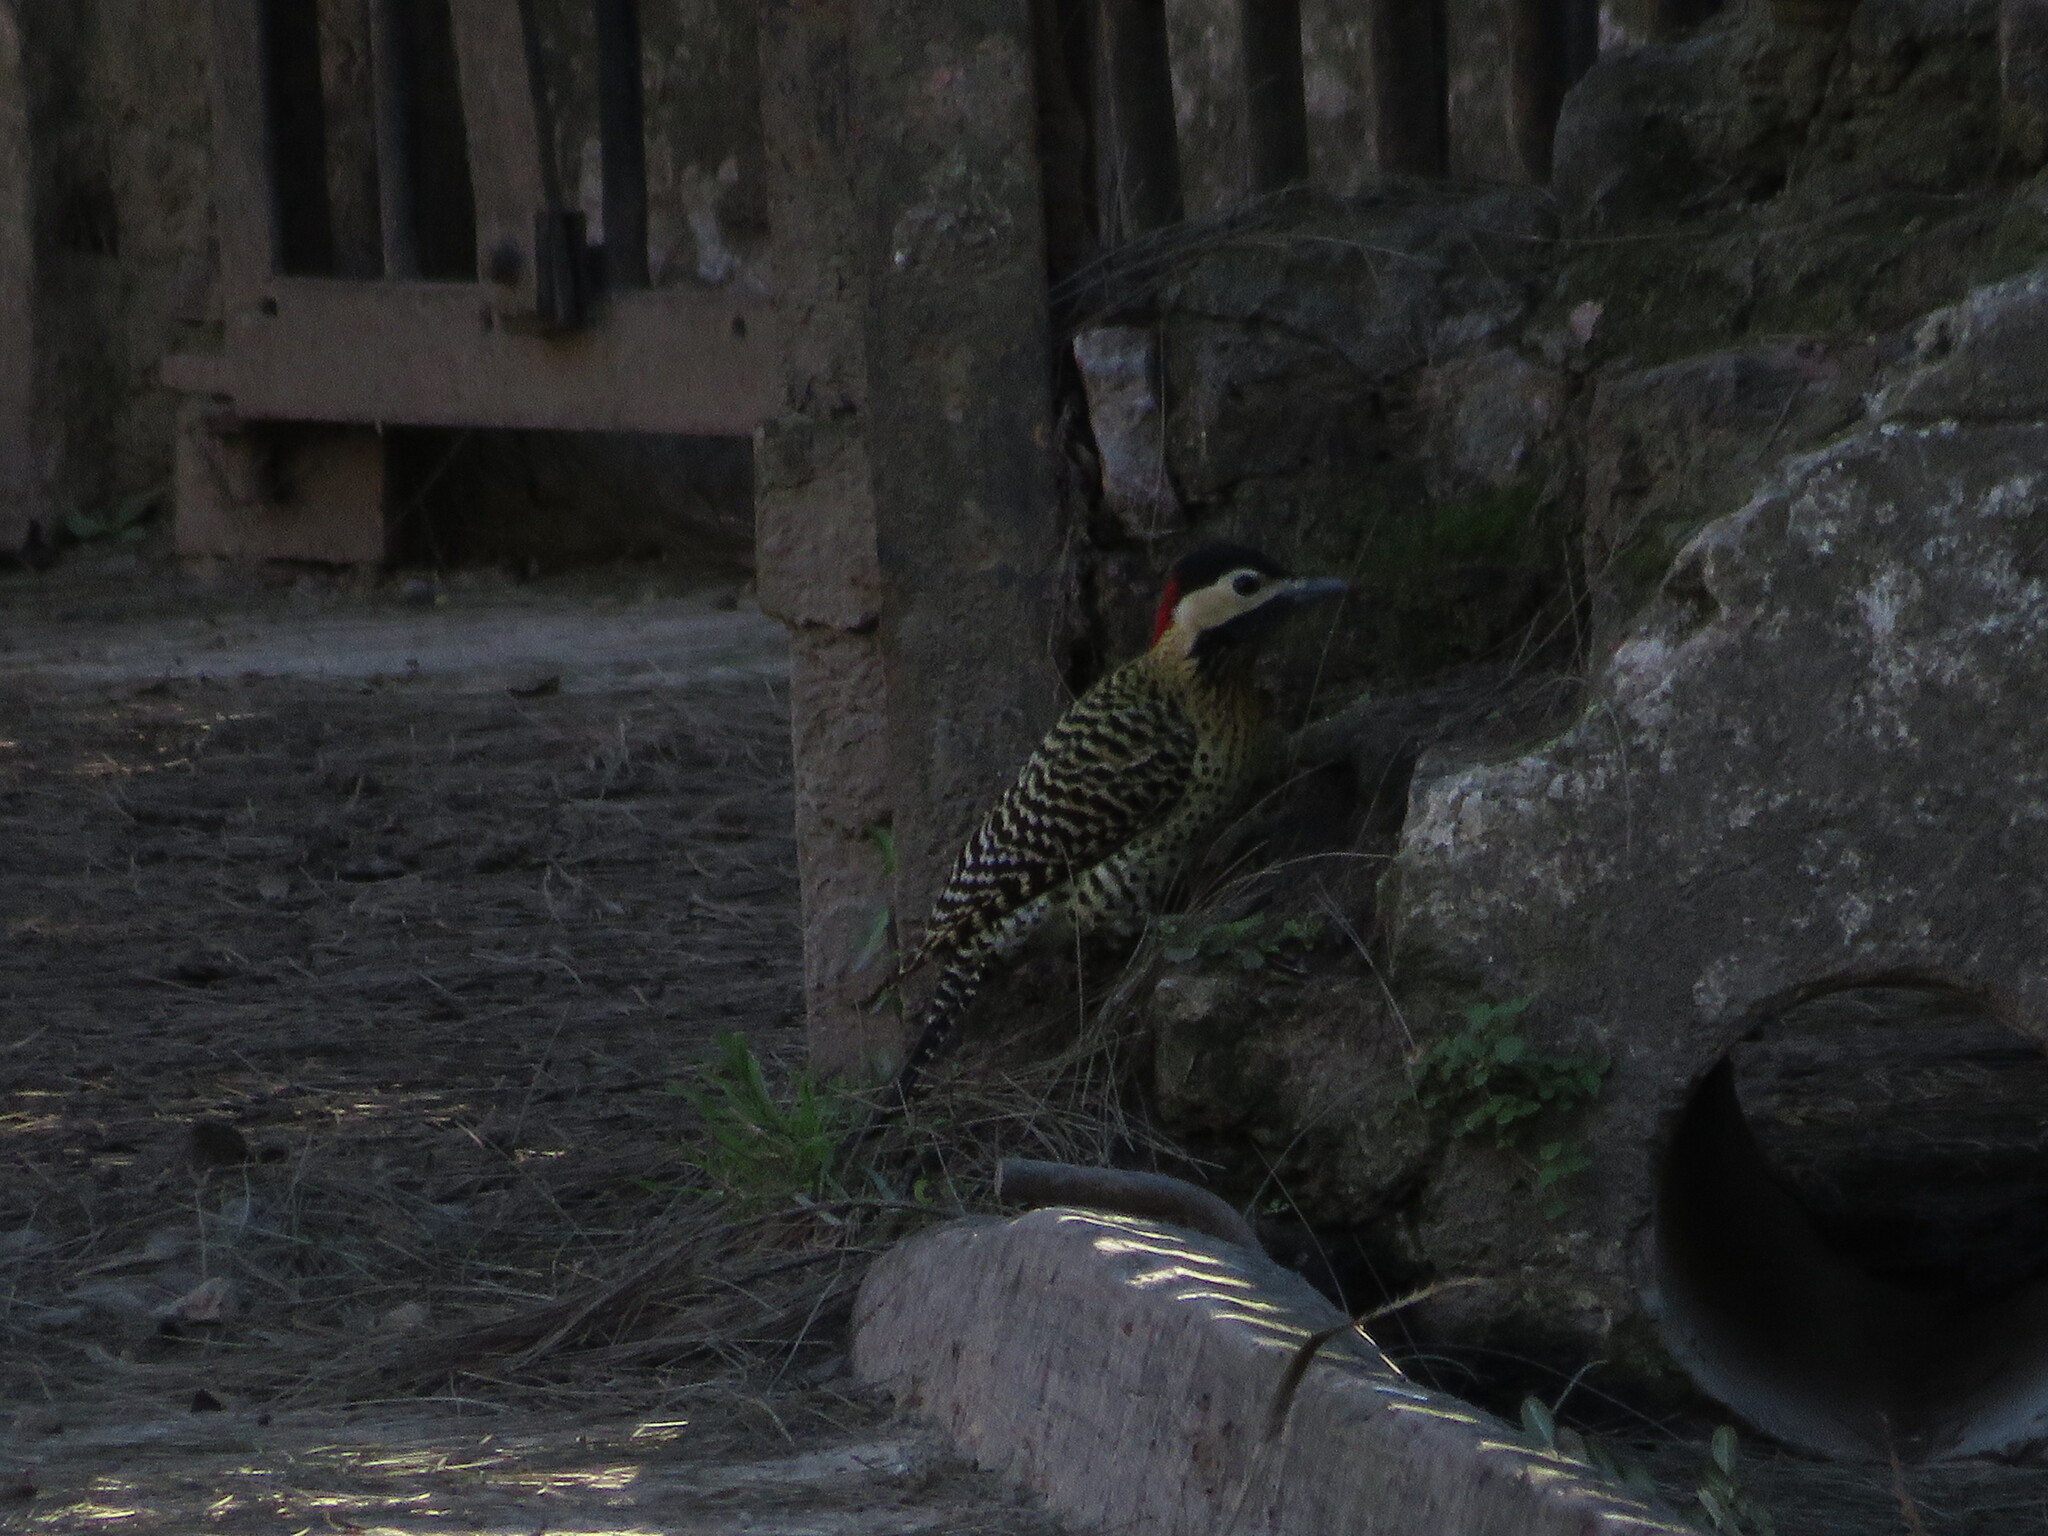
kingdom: Animalia
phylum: Chordata
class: Aves
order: Piciformes
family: Picidae
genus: Colaptes
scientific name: Colaptes melanochloros
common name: Green-barred woodpecker
